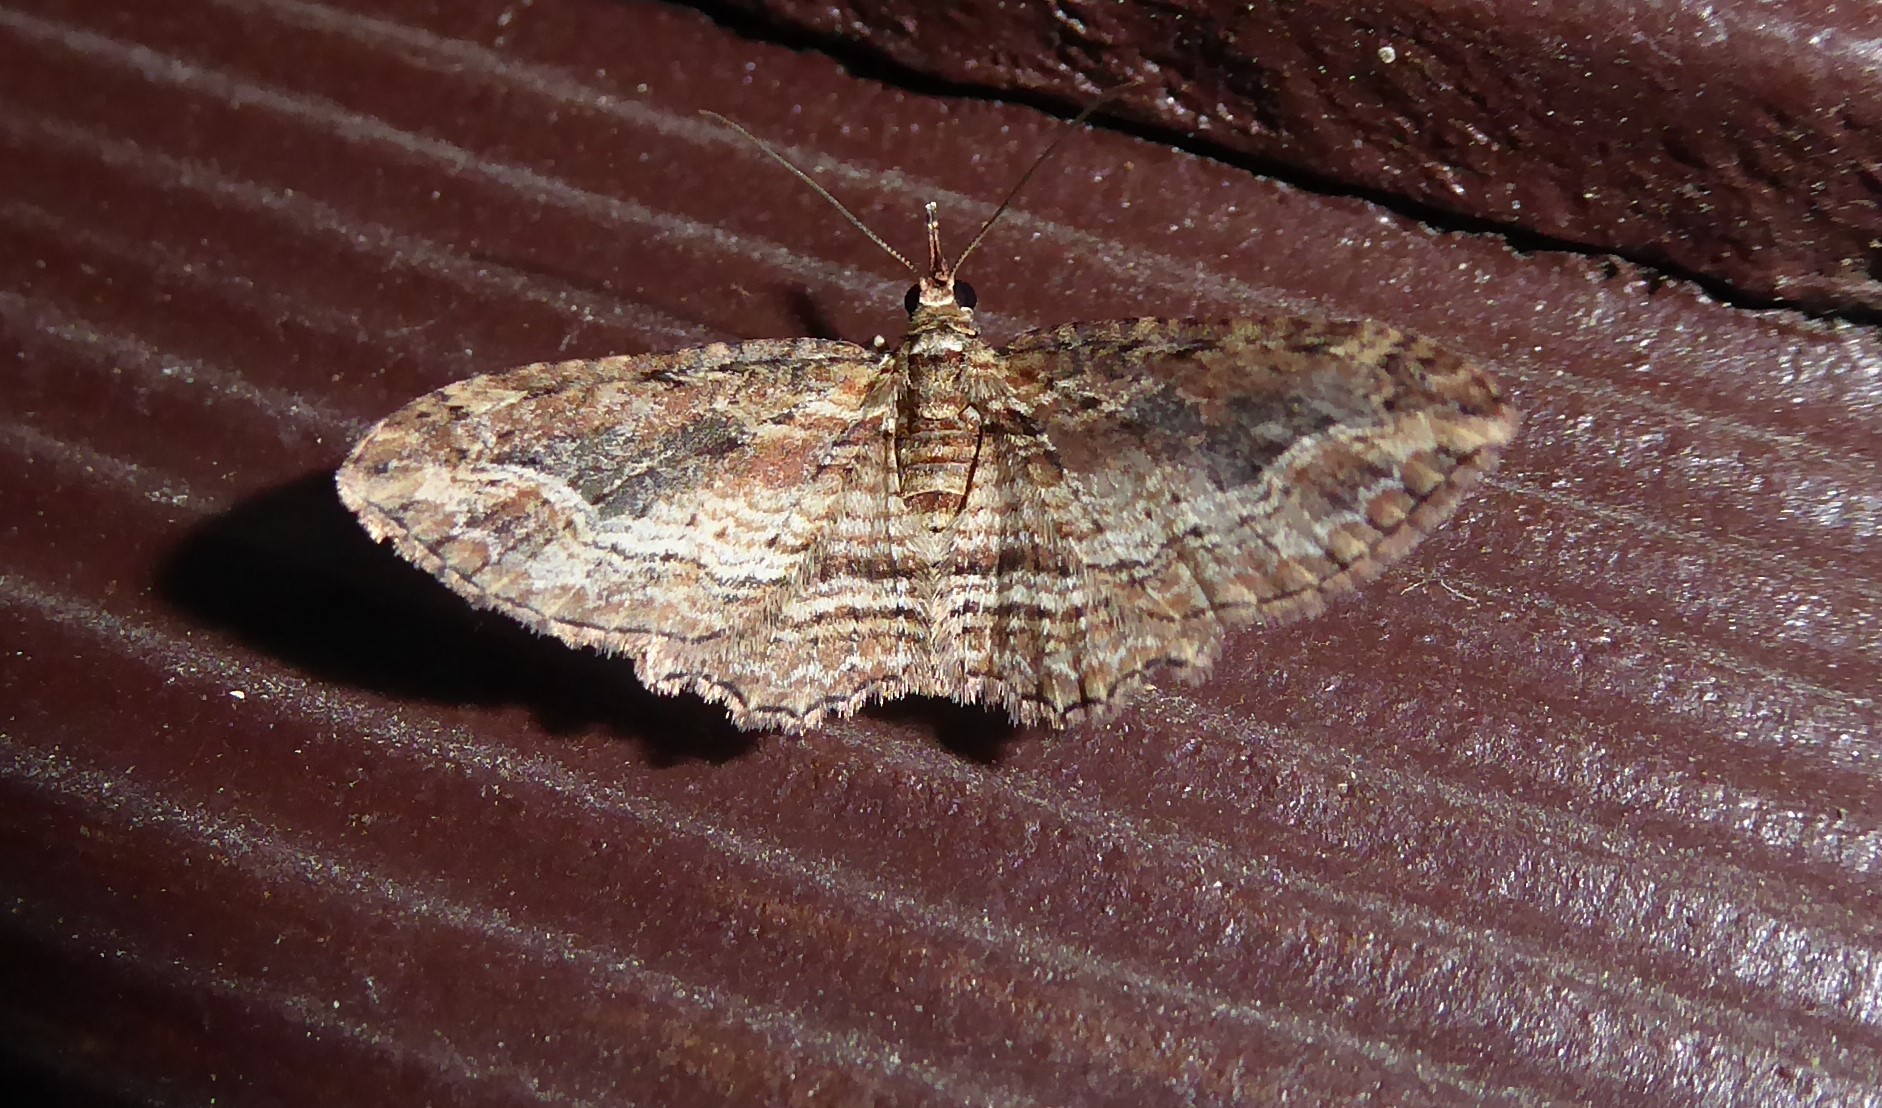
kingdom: Animalia
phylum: Arthropoda
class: Insecta
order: Lepidoptera
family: Geometridae
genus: Chloroclystis
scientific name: Chloroclystis filata
